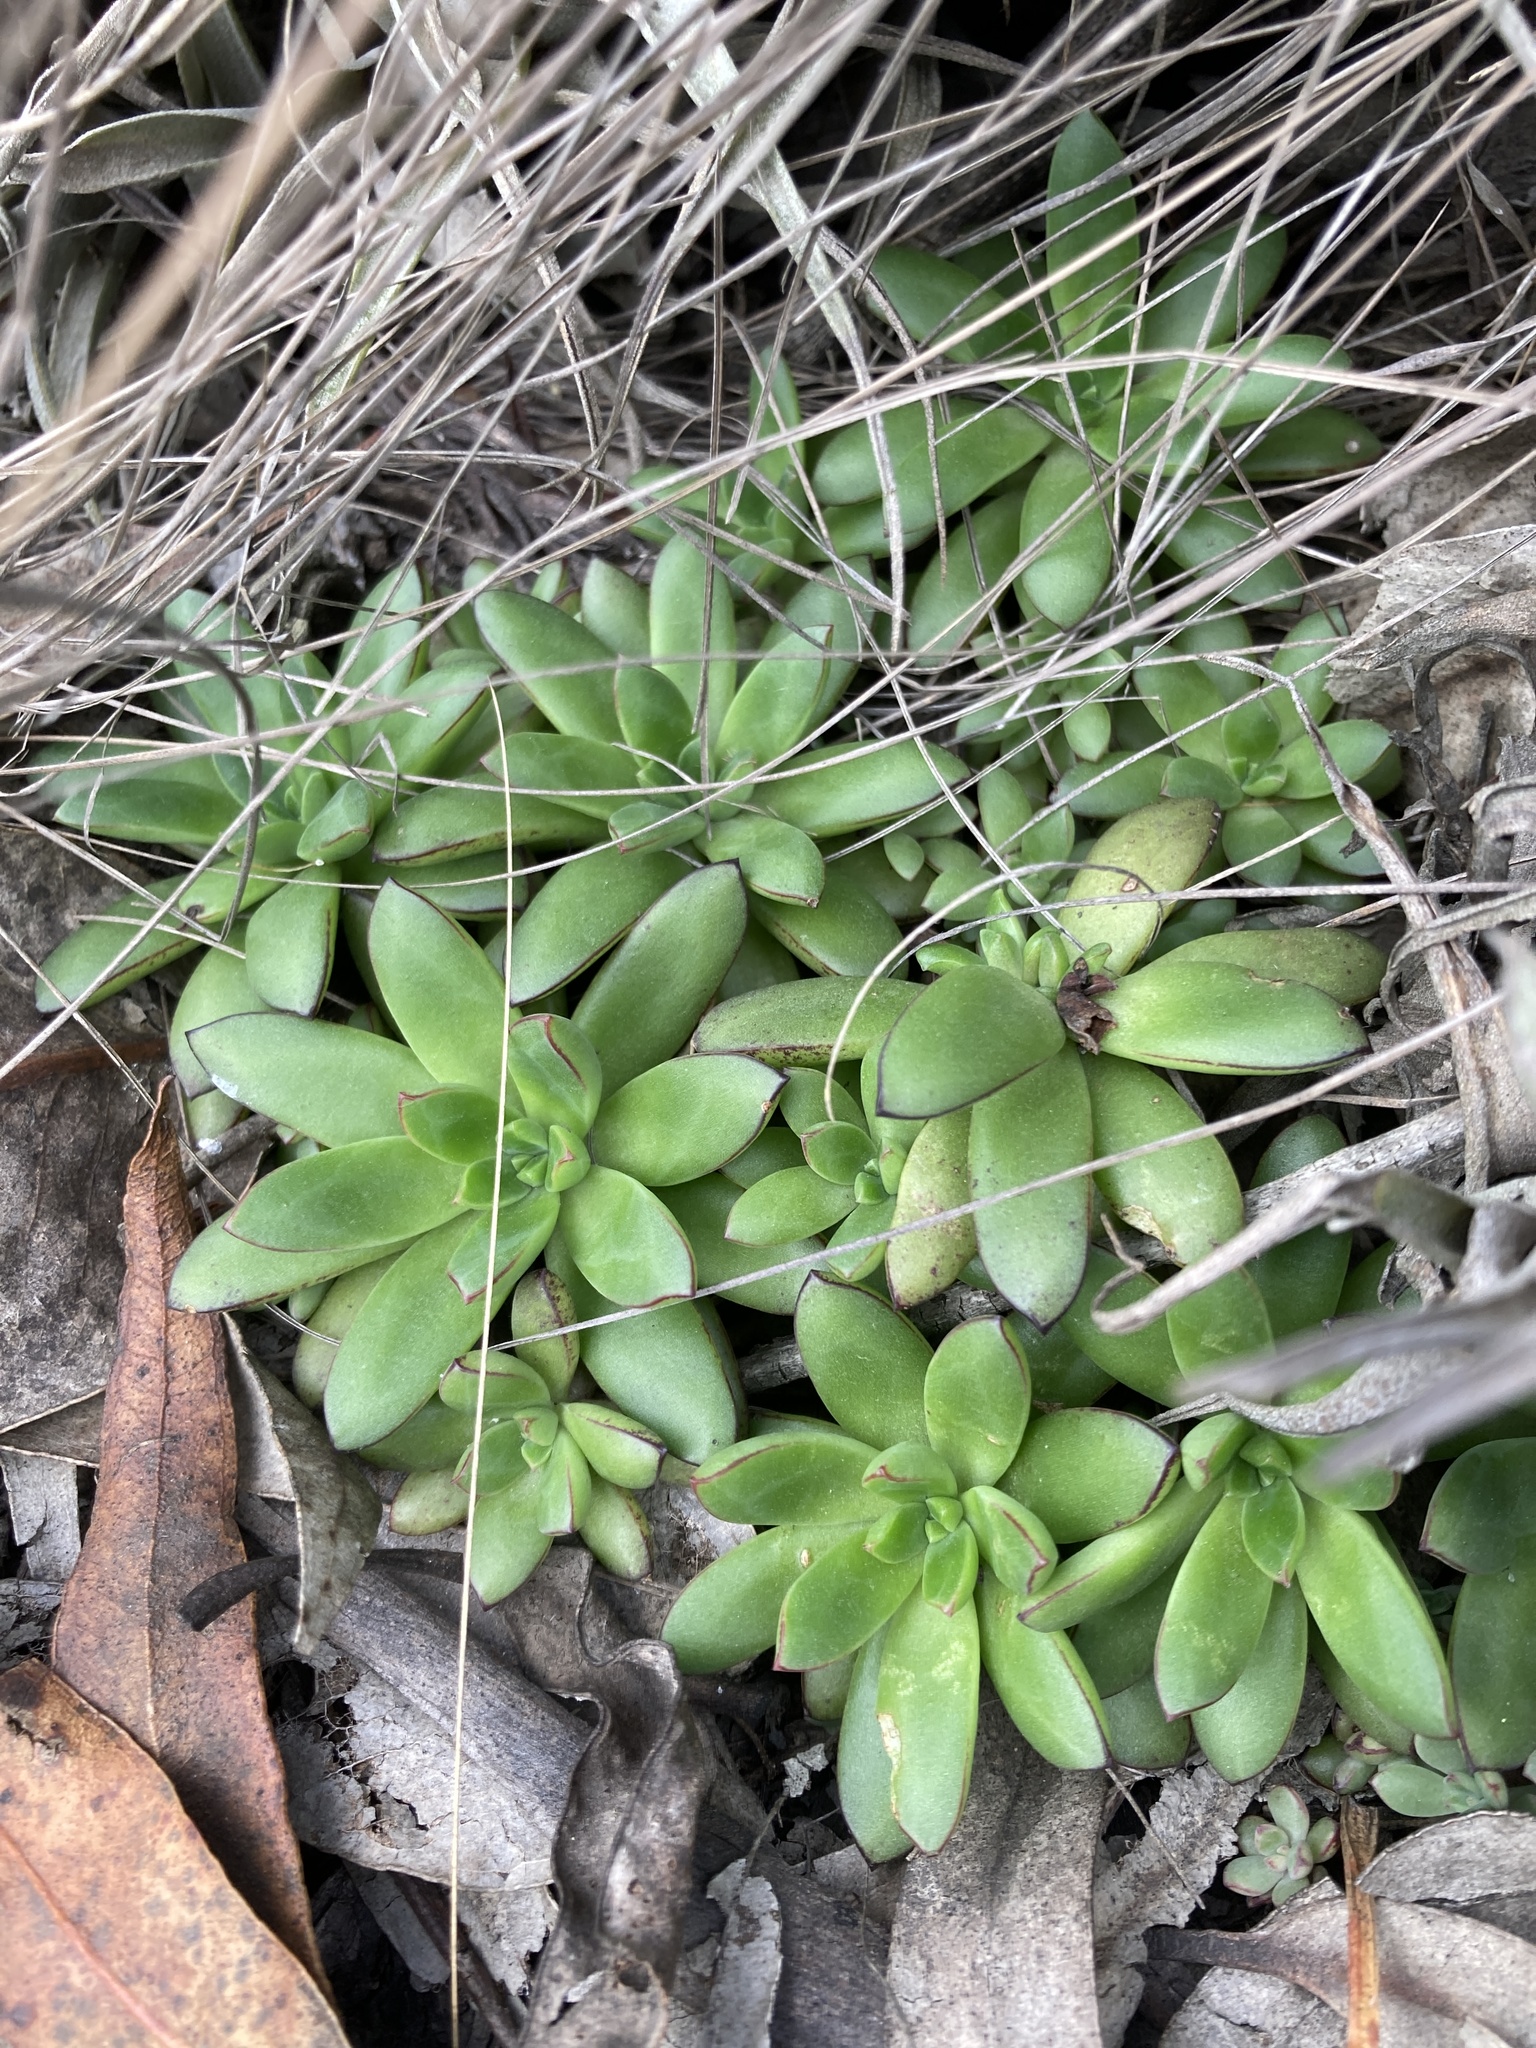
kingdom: Plantae
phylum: Tracheophyta
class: Magnoliopsida
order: Saxifragales
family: Crassulaceae
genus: Echeveria
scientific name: Echeveria bicolor
